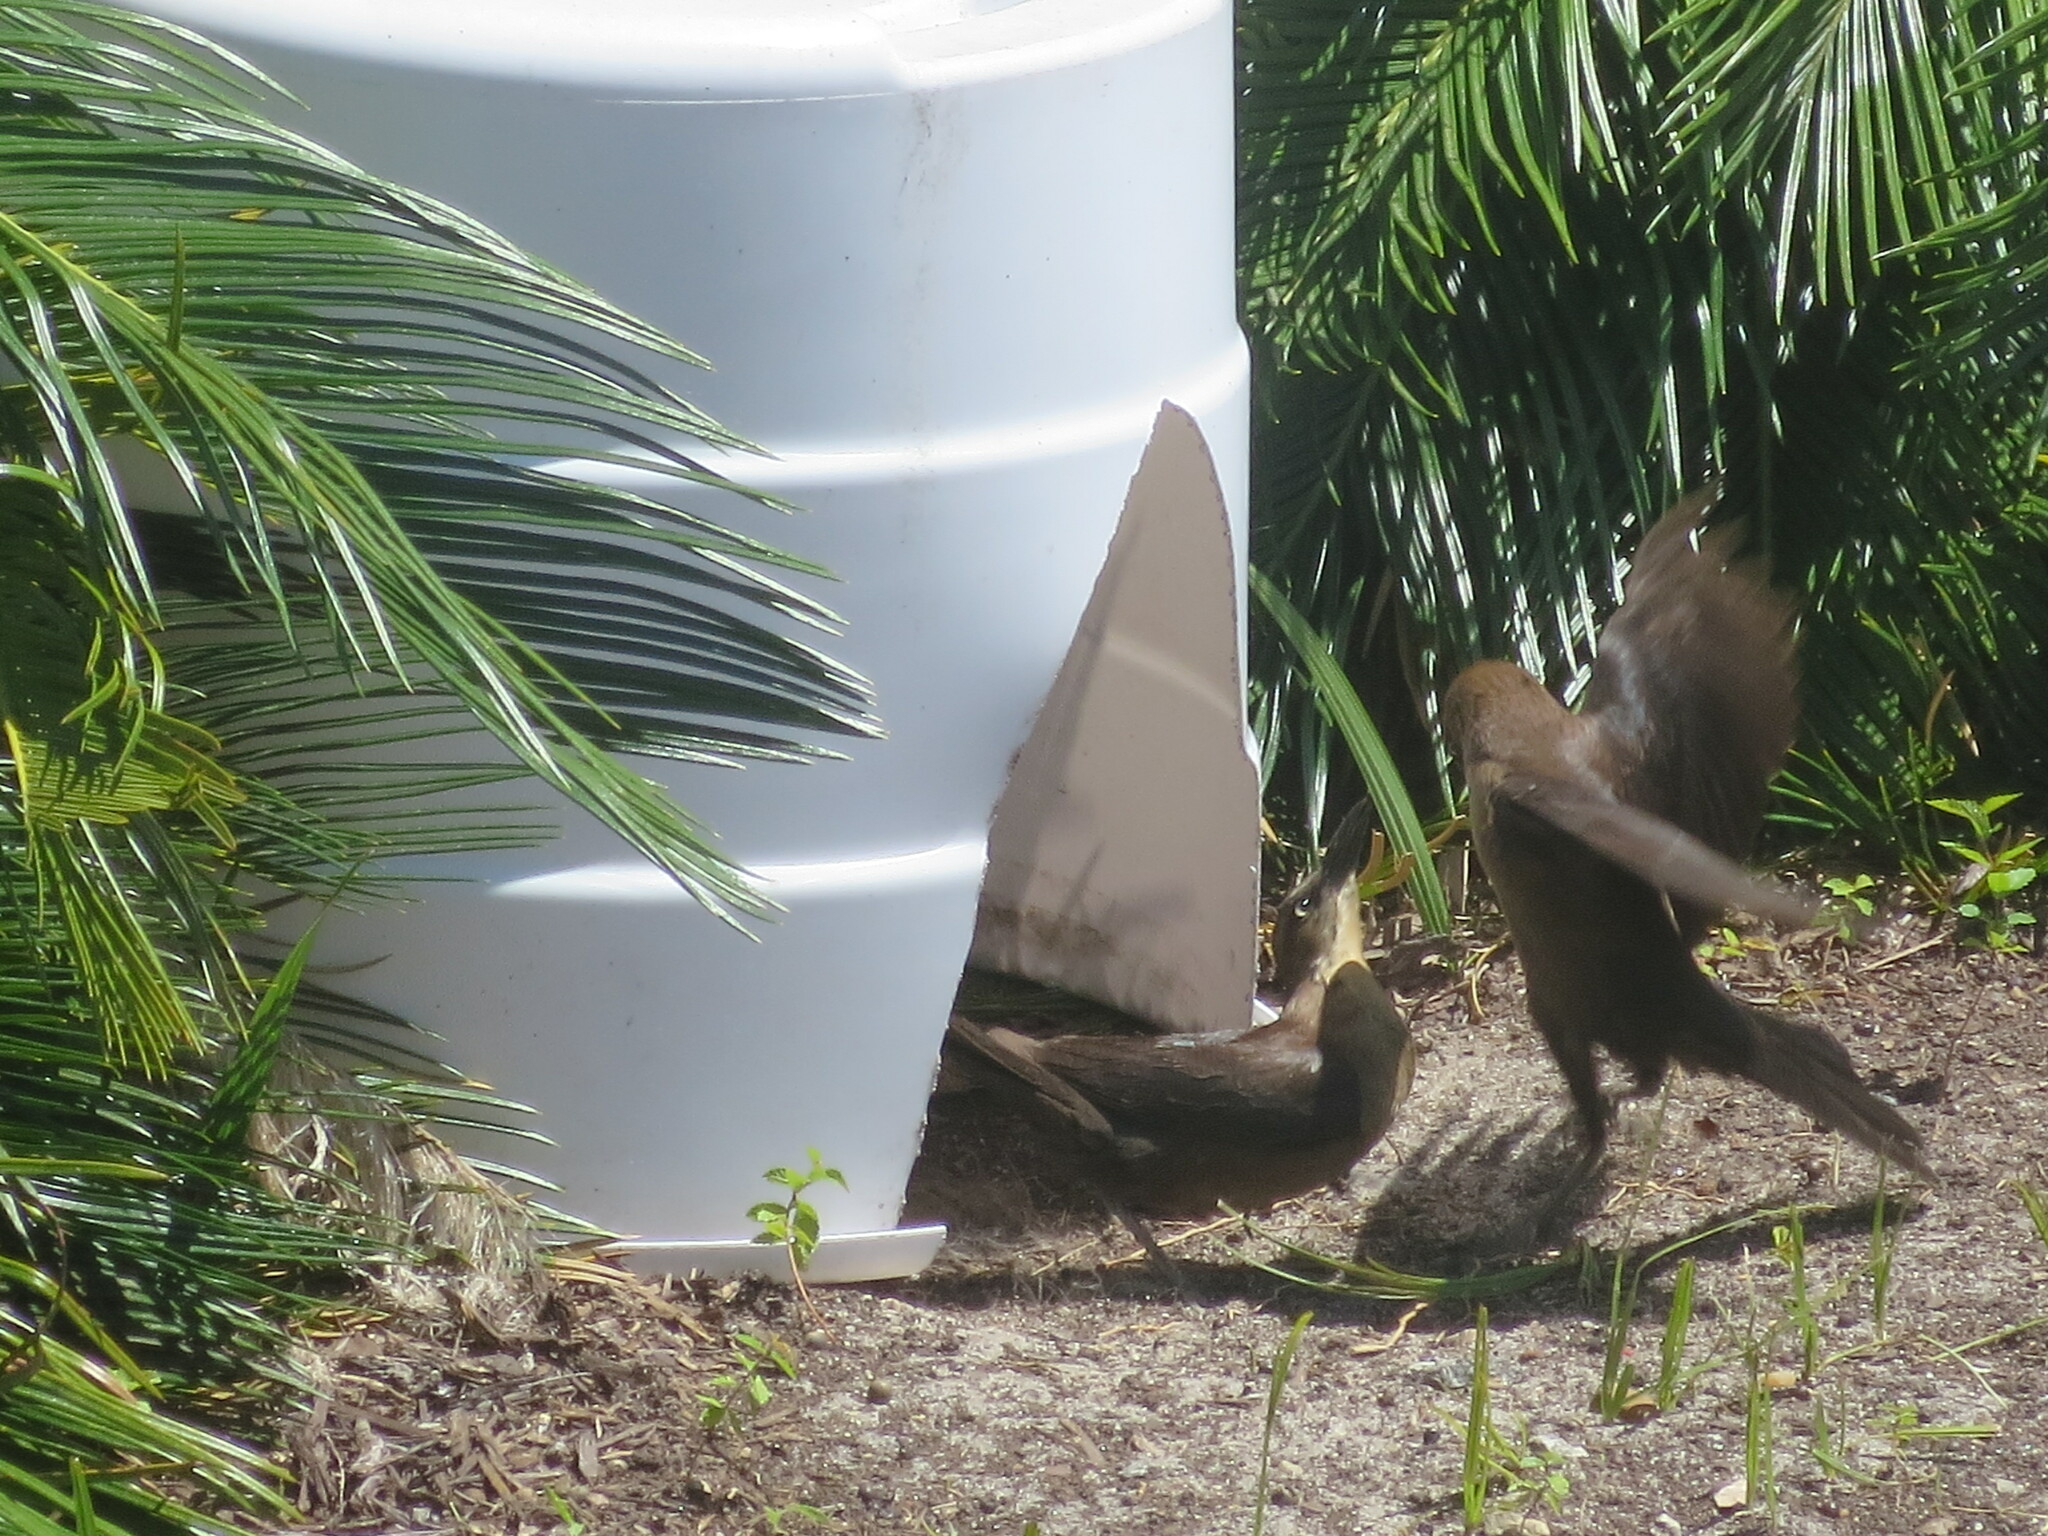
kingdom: Animalia
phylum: Chordata
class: Aves
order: Passeriformes
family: Icteridae
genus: Quiscalus
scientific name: Quiscalus major
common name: Boat-tailed grackle
